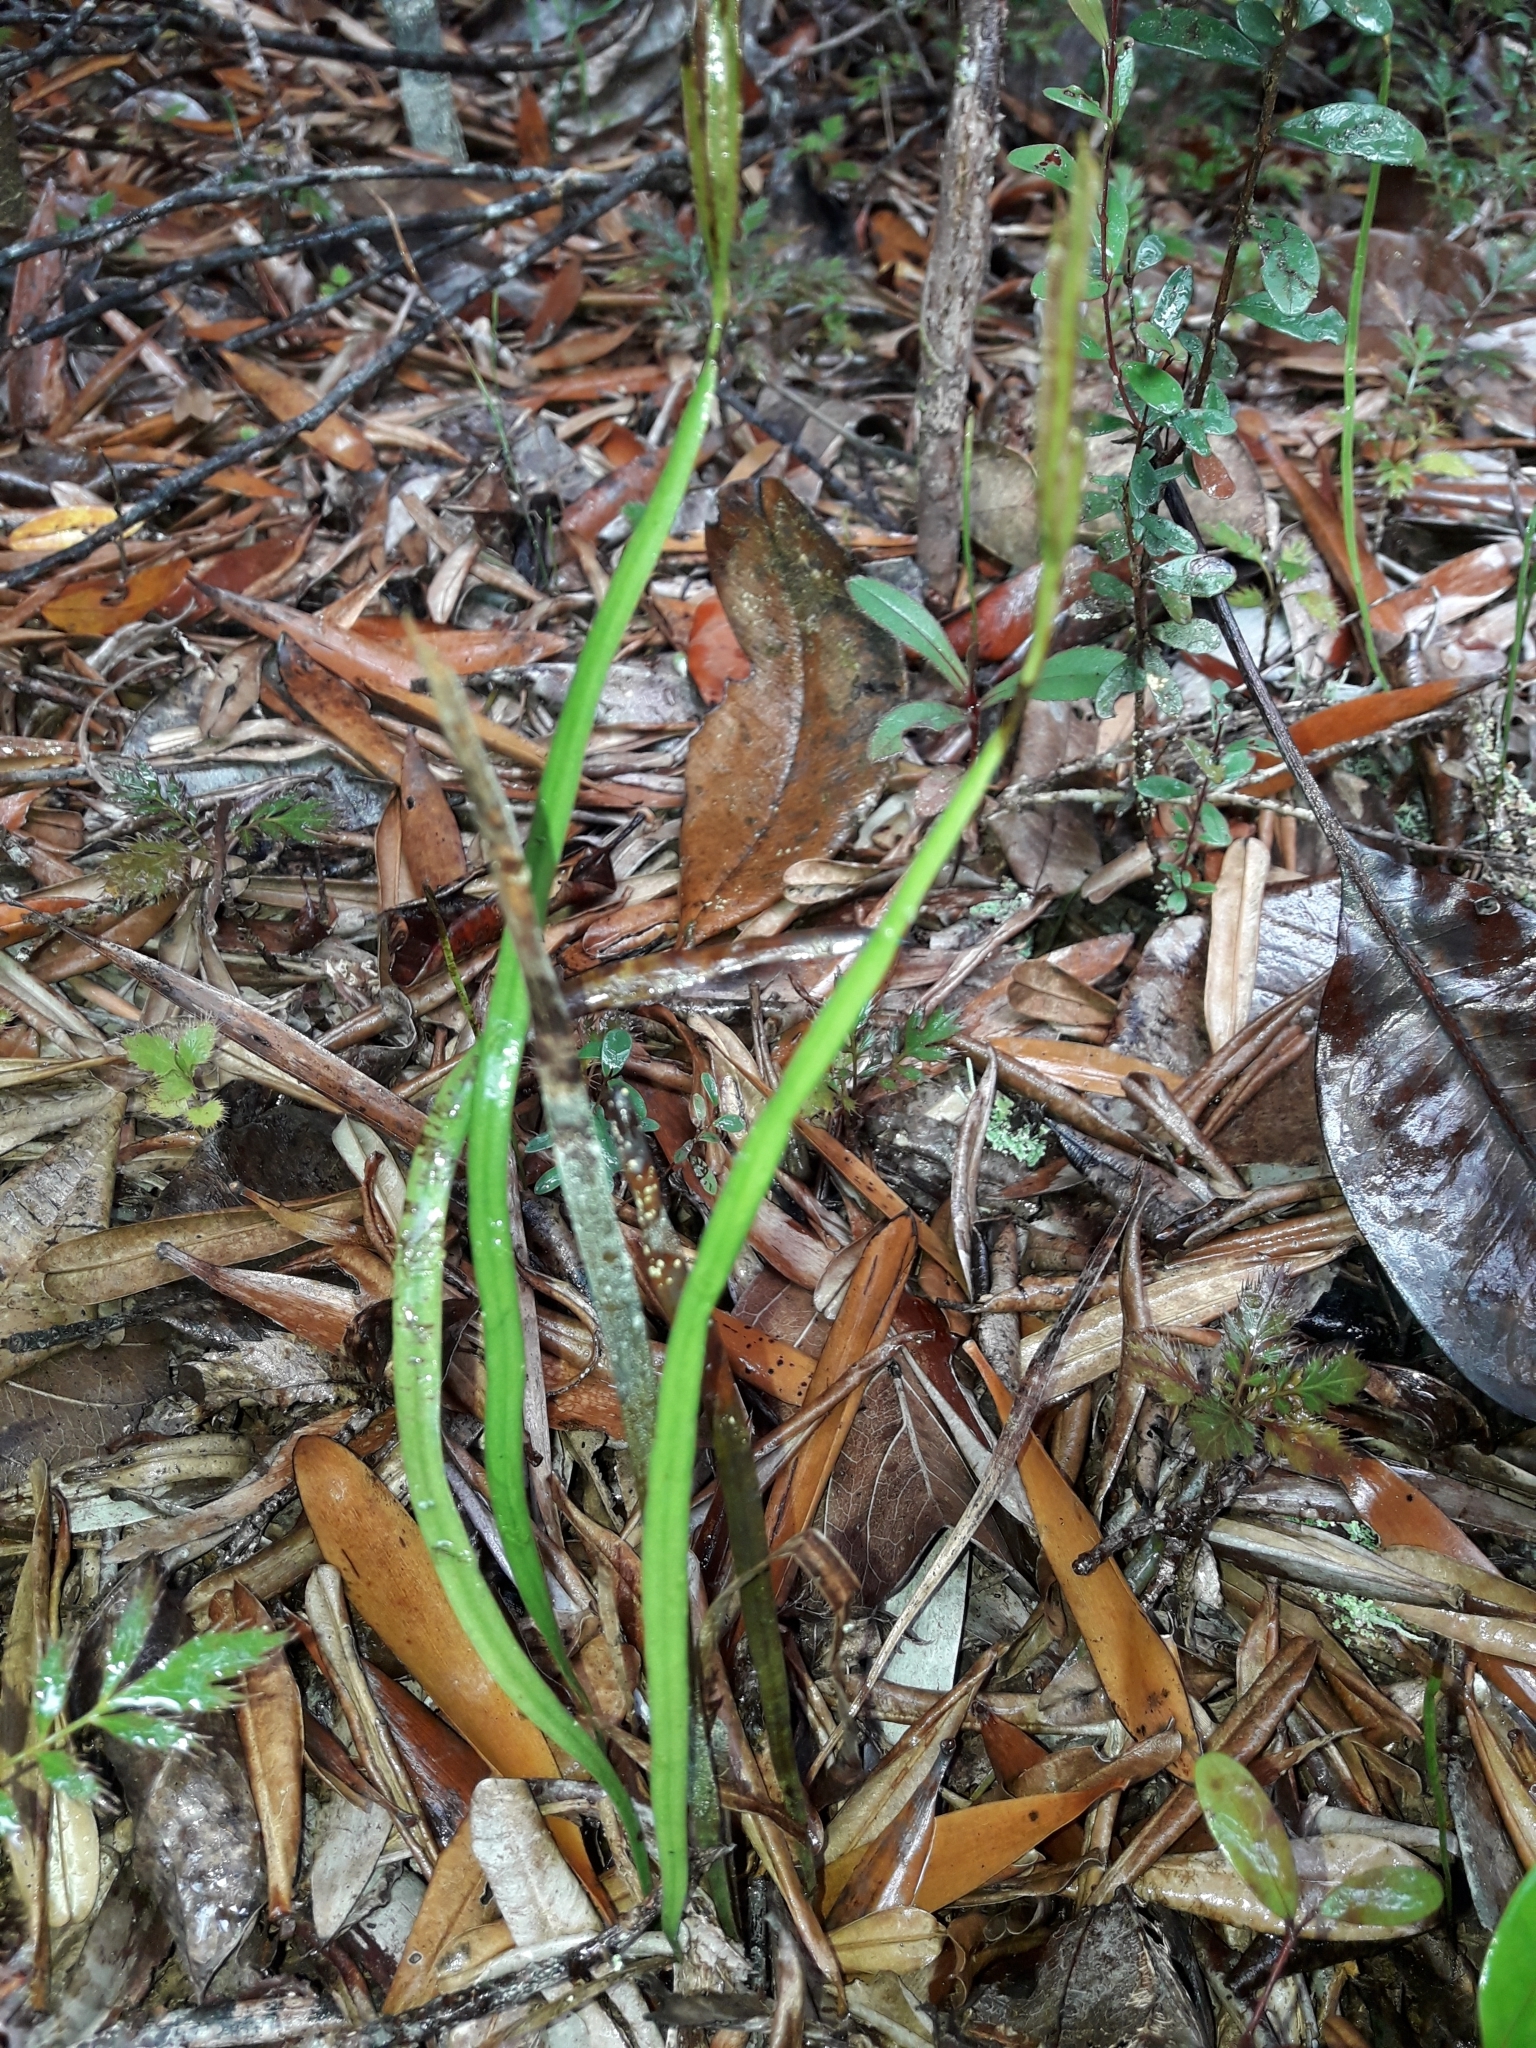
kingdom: Plantae
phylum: Tracheophyta
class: Polypodiopsida
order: Schizaeales
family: Schizaeaceae
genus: Actinostachys
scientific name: Actinostachys melanesica
